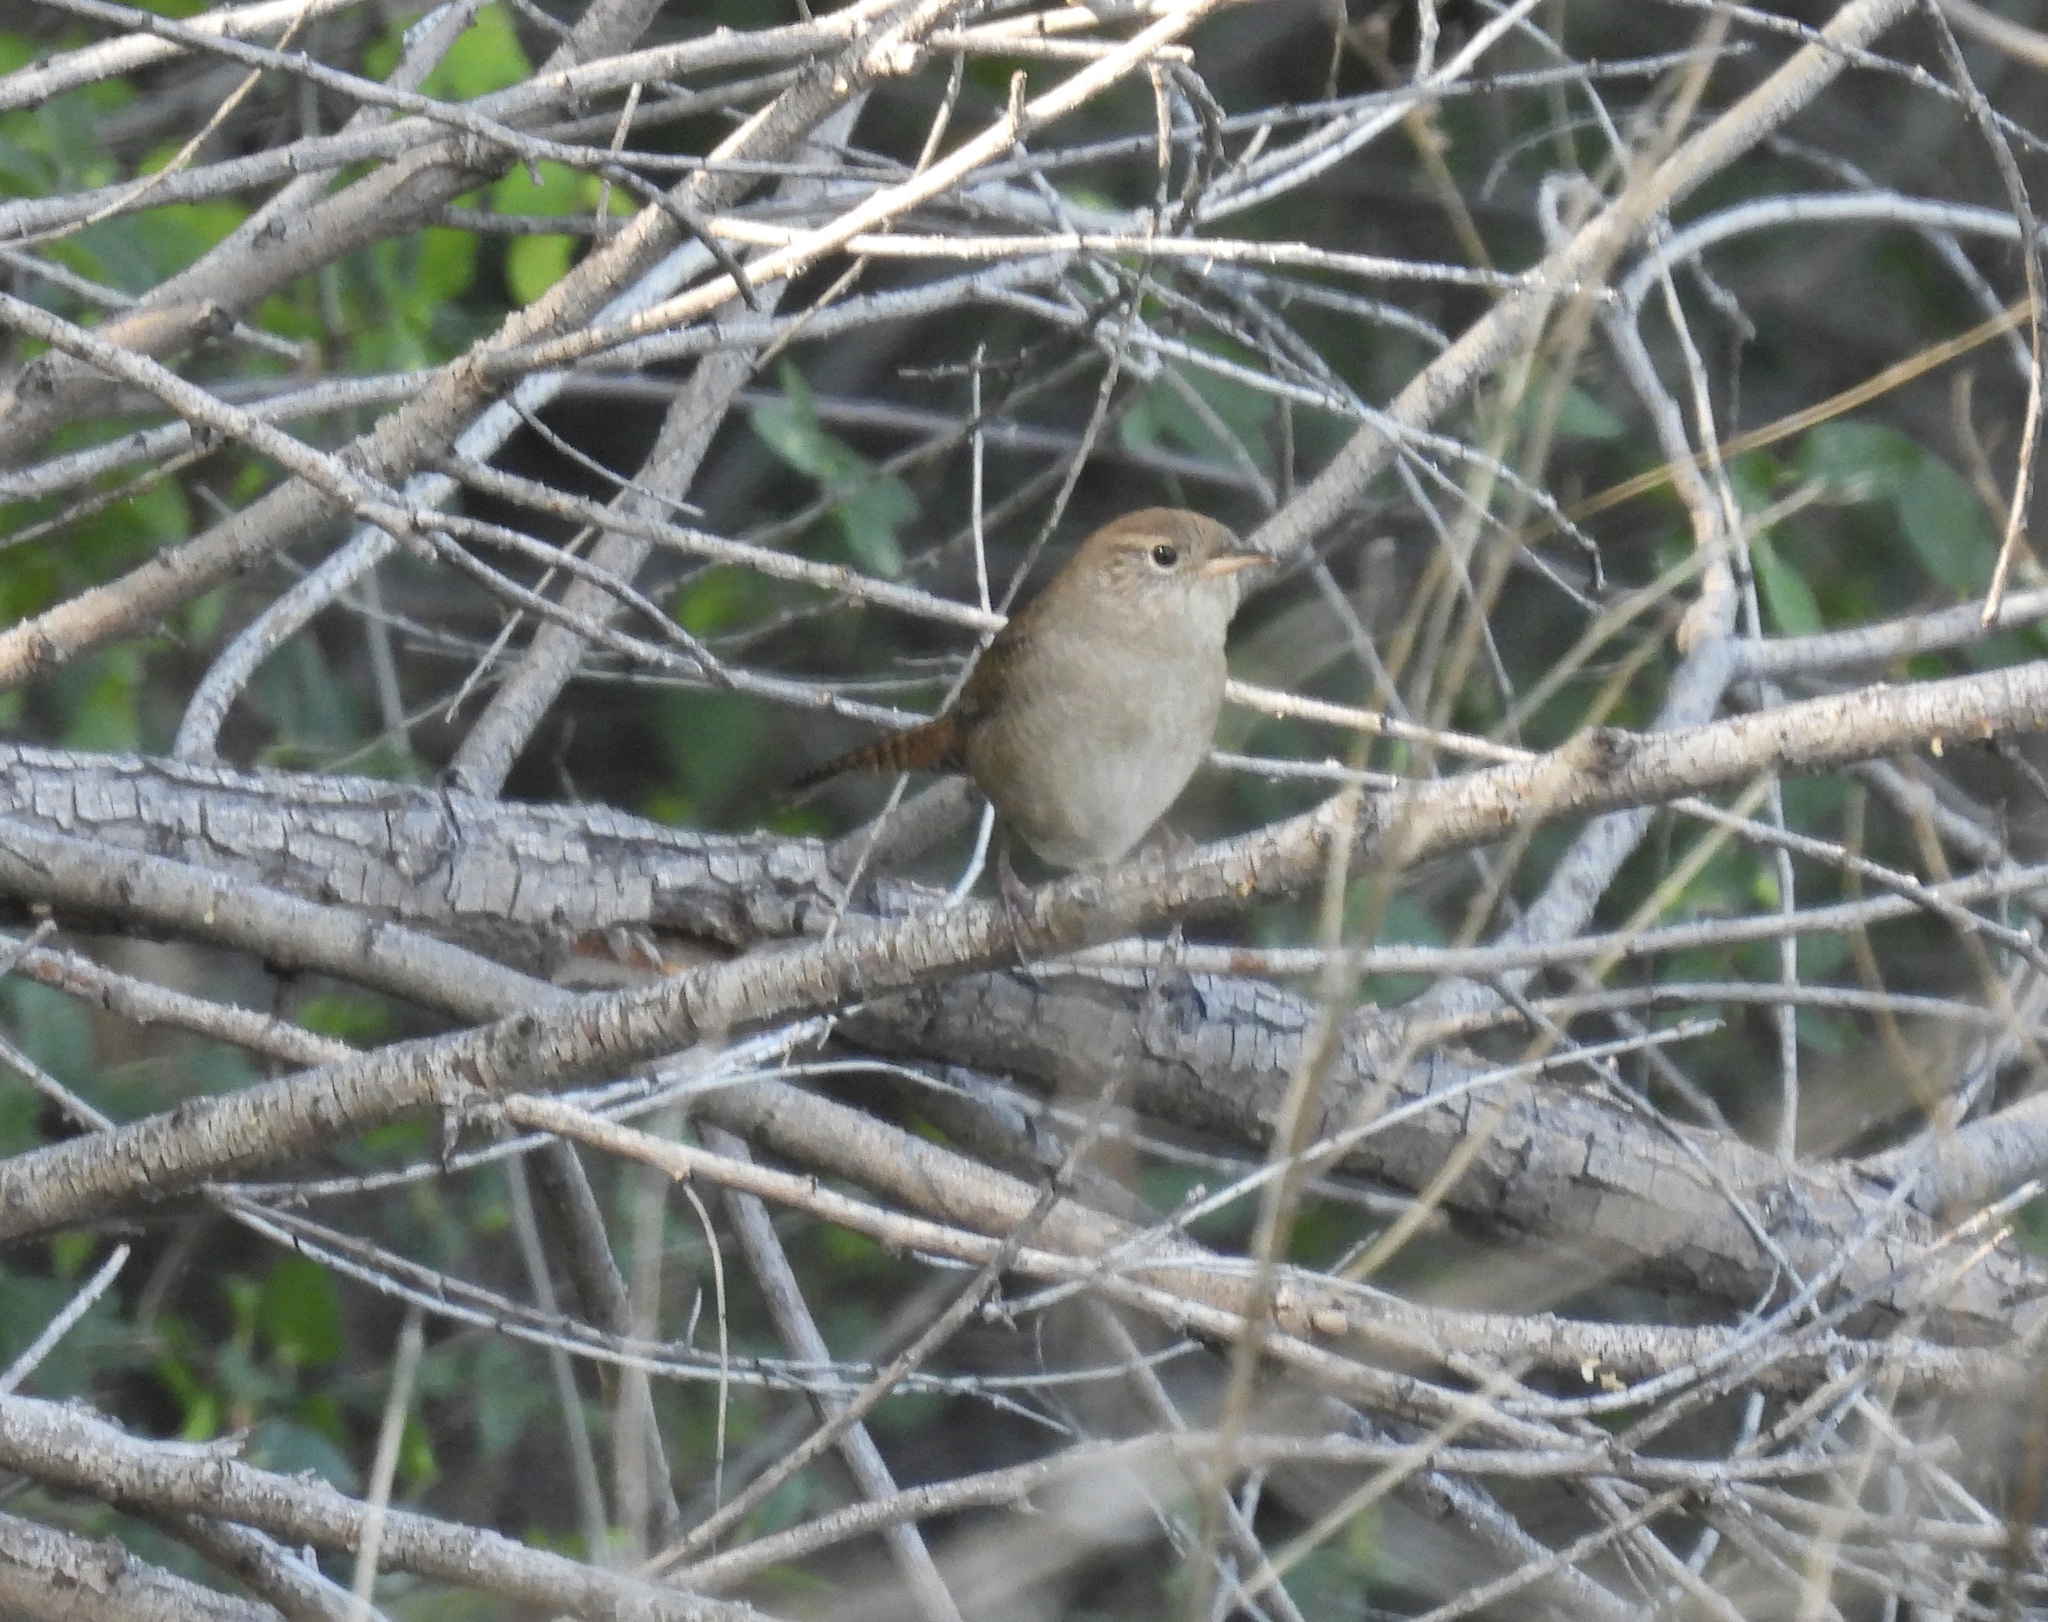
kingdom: Animalia
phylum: Chordata
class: Aves
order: Passeriformes
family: Troglodytidae
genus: Troglodytes
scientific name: Troglodytes aedon
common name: House wren
